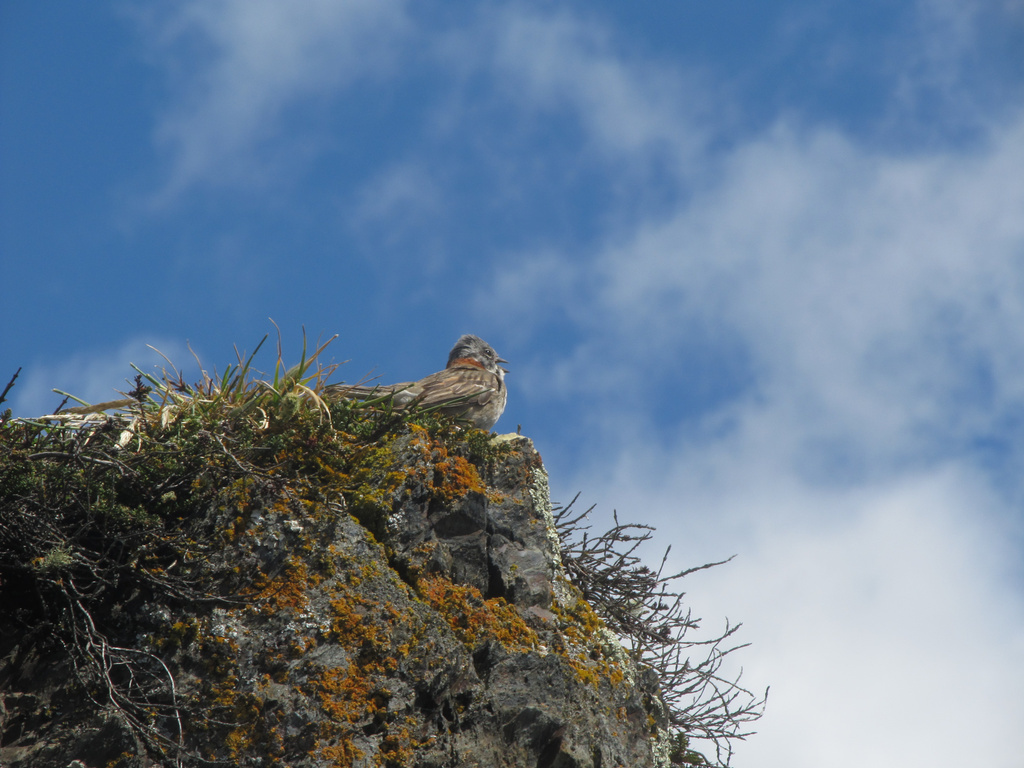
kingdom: Animalia
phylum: Chordata
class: Aves
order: Passeriformes
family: Passerellidae
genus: Zonotrichia
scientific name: Zonotrichia capensis
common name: Rufous-collared sparrow
